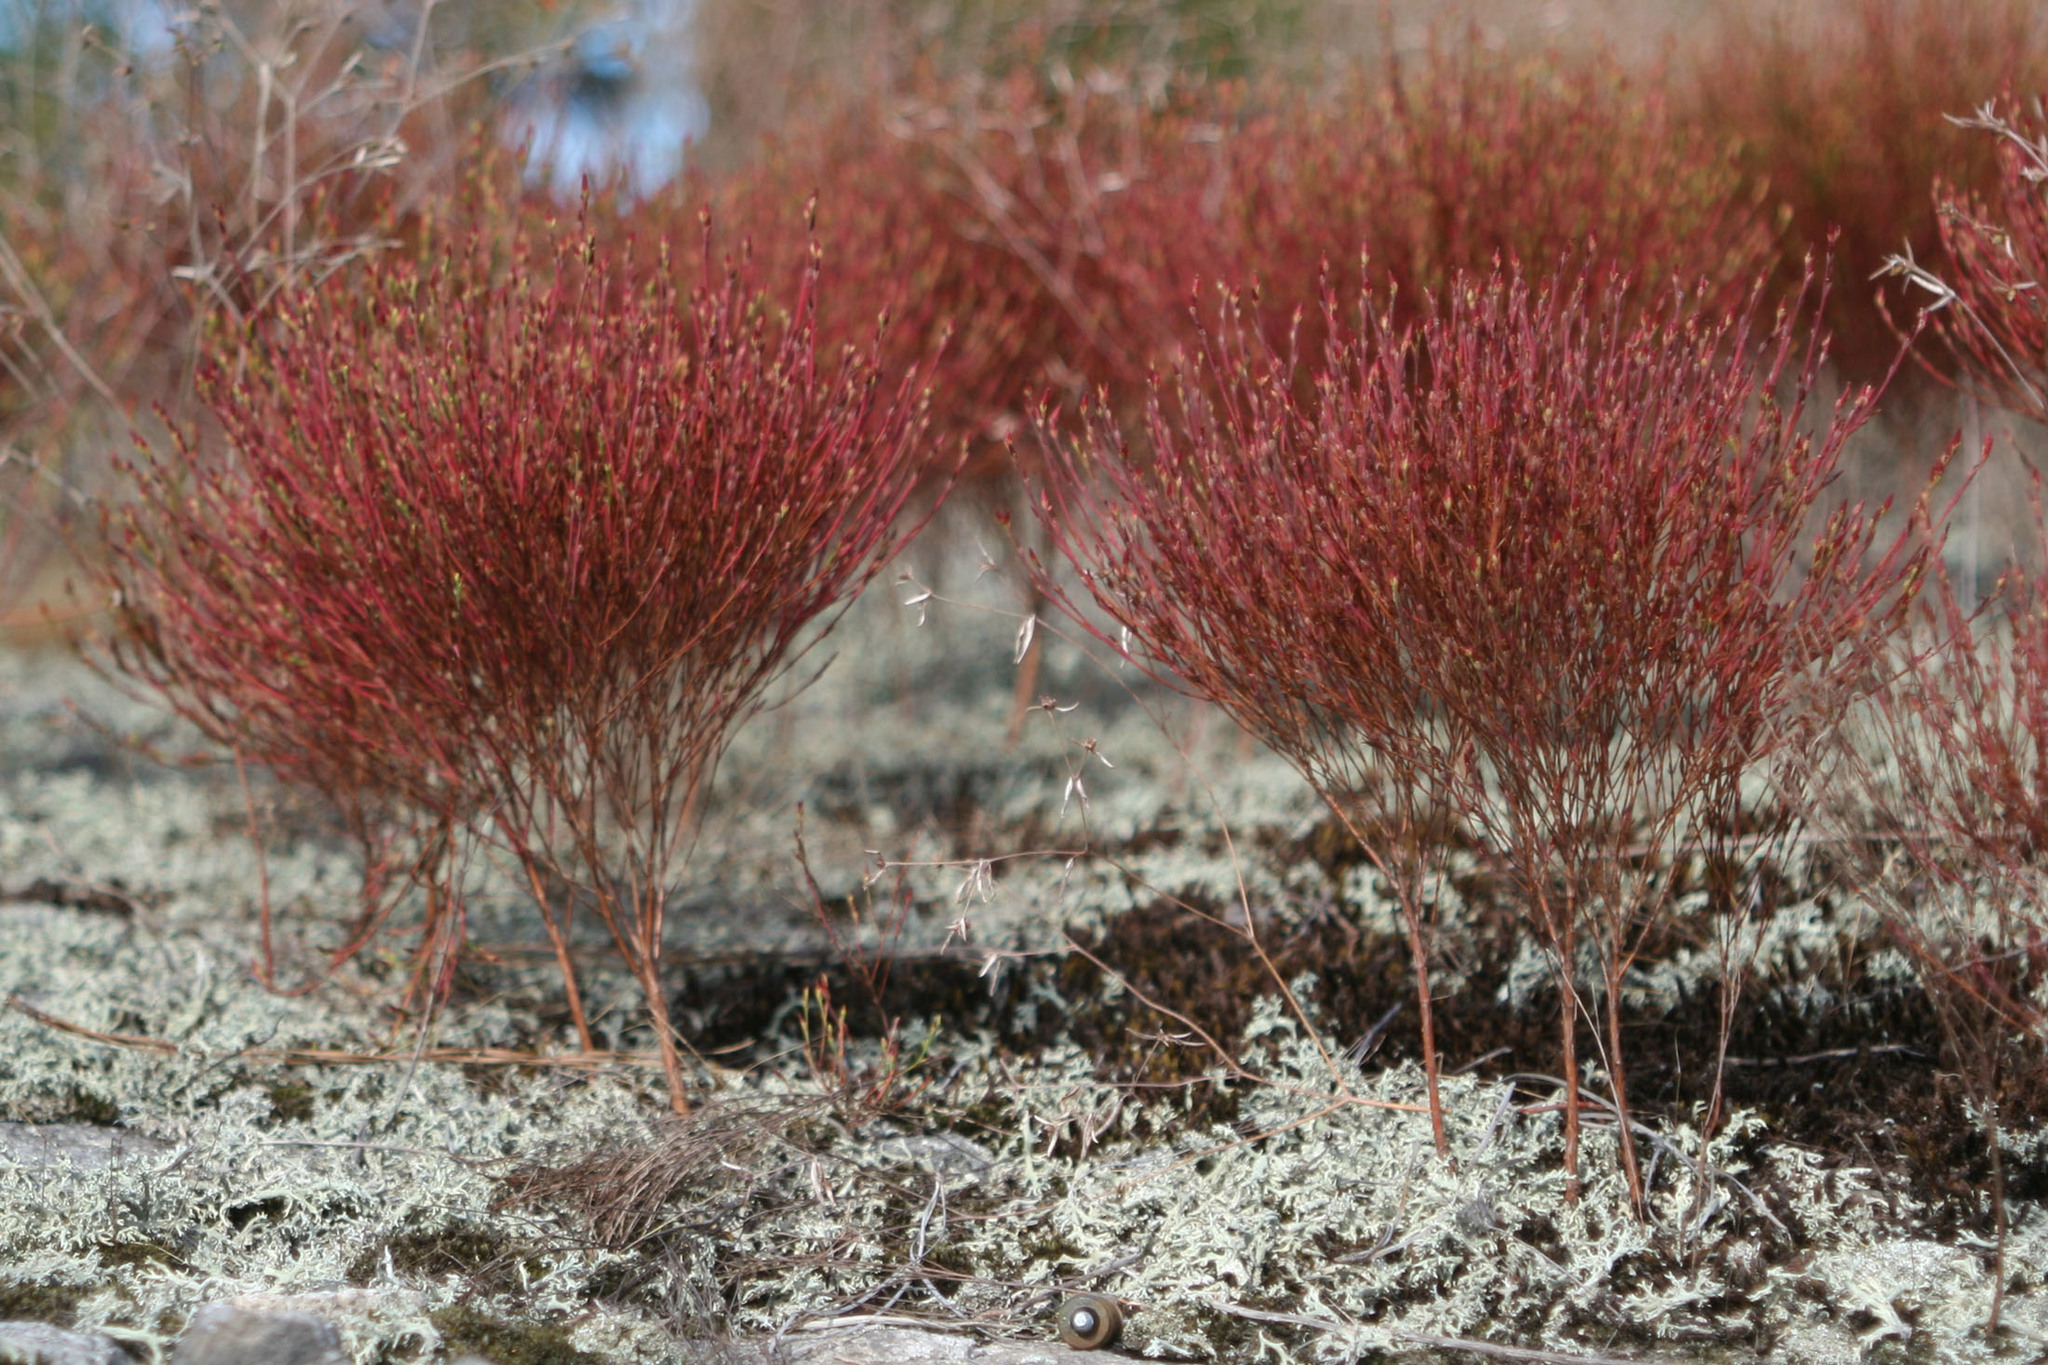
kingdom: Plantae
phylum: Tracheophyta
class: Magnoliopsida
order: Malpighiales
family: Hypericaceae
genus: Hypericum
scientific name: Hypericum gentianoides
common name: Gentian-leaved st. john's-wort
